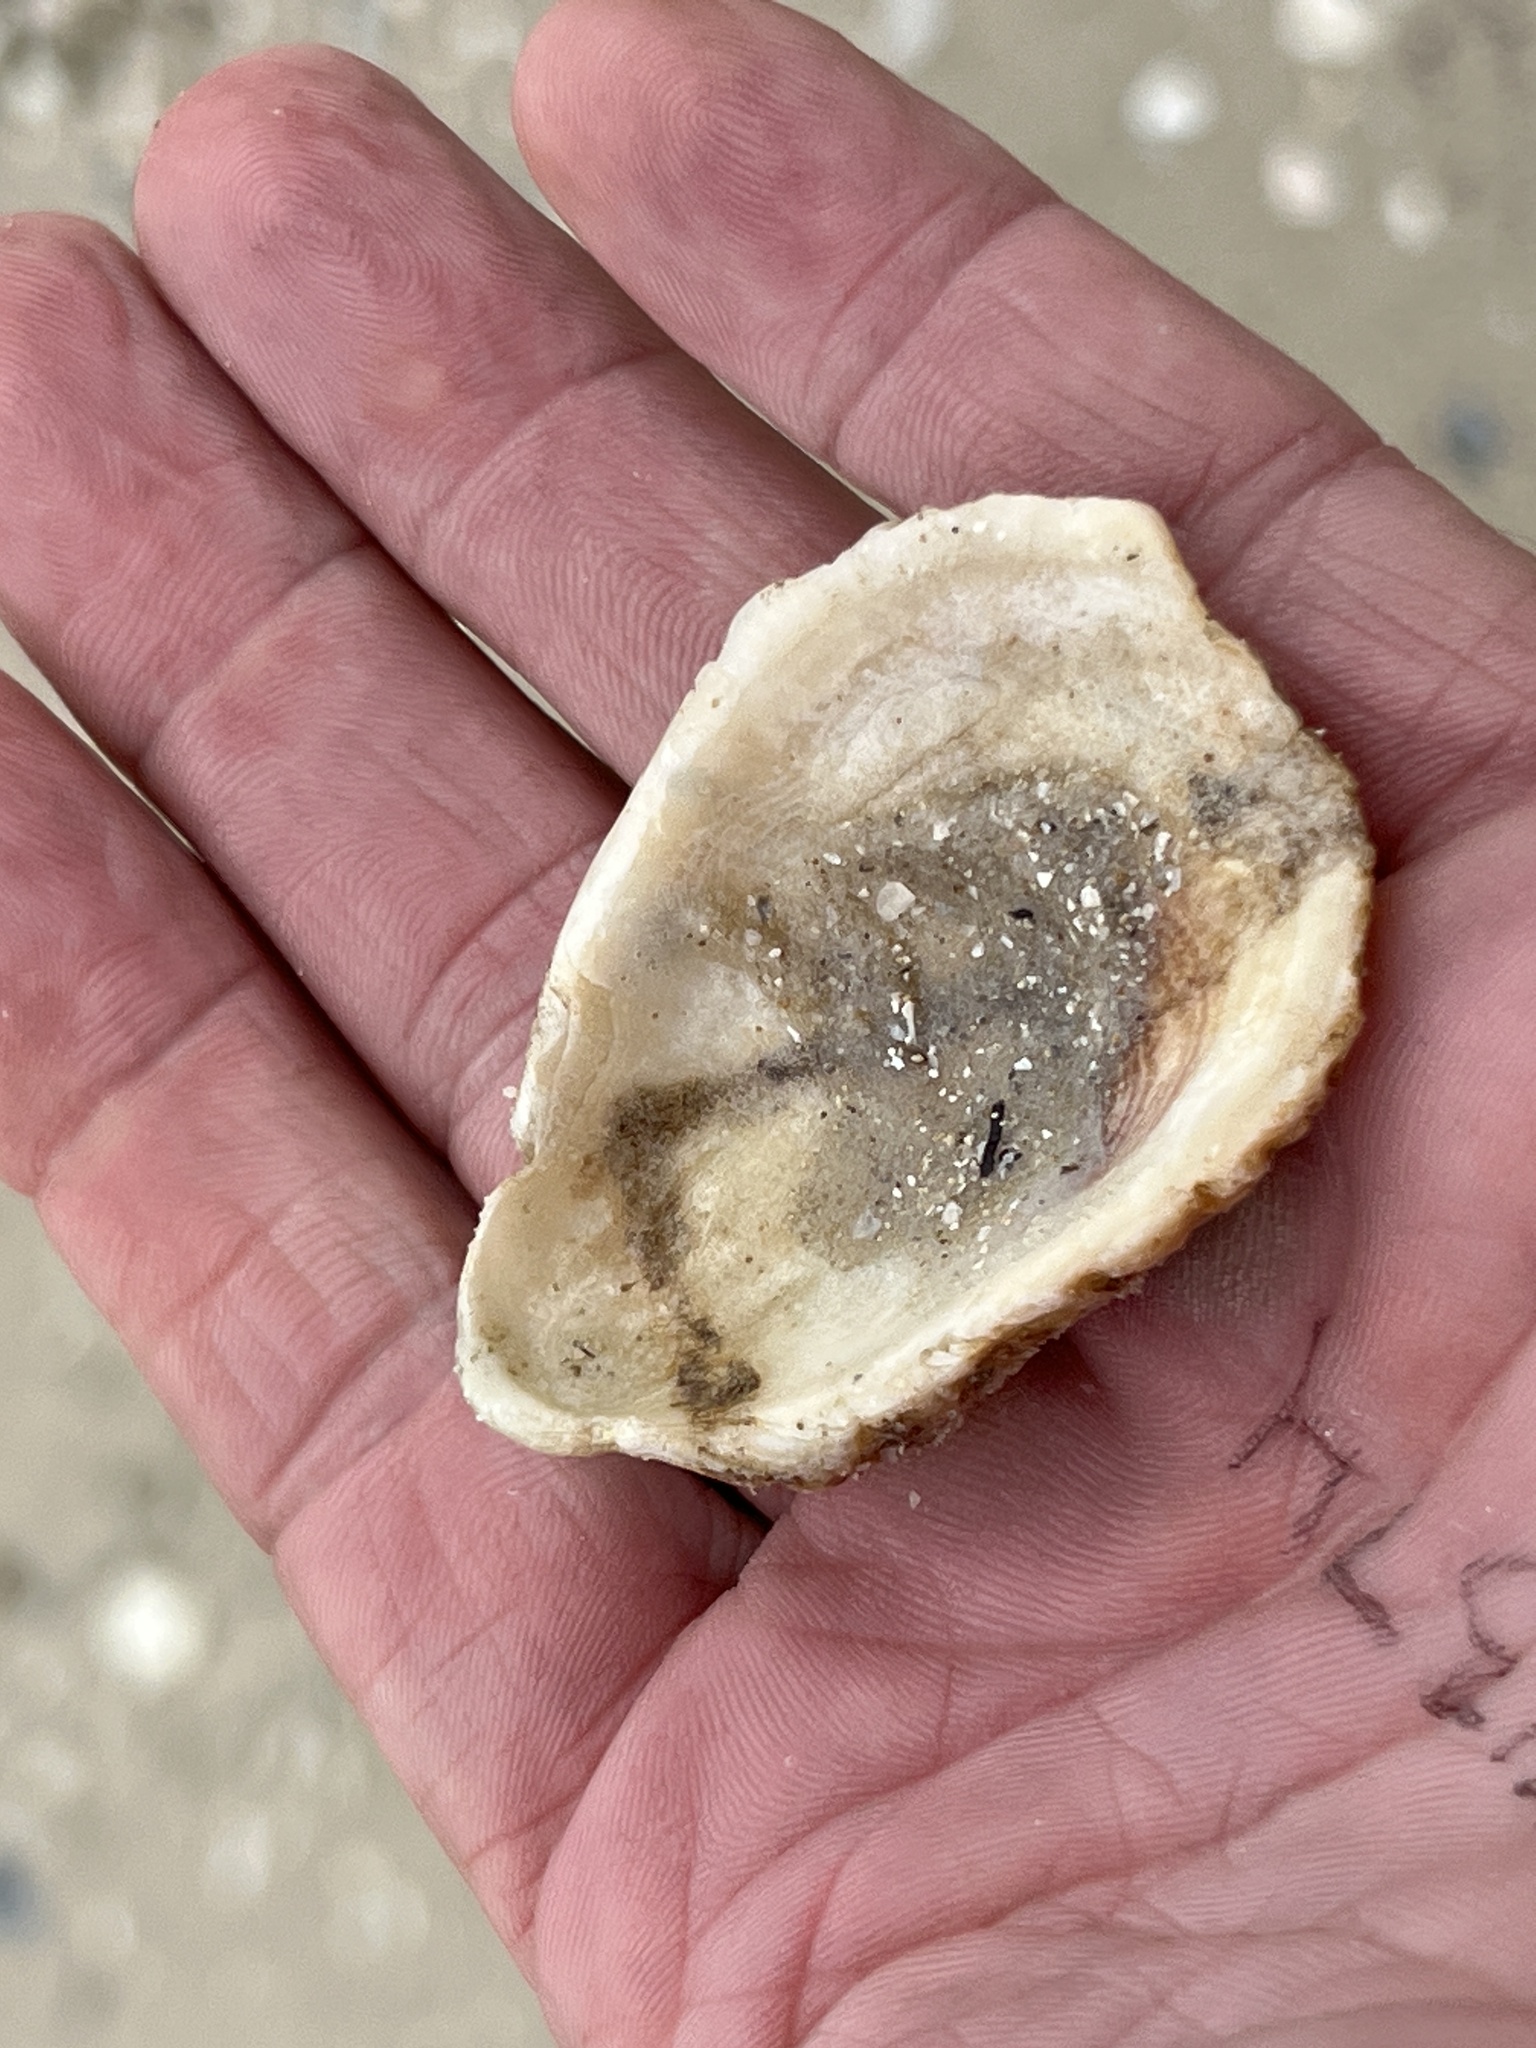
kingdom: Animalia
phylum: Mollusca
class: Bivalvia
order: Ostreida
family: Ostreidae
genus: Crassostrea
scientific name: Crassostrea virginica
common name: American oyster
